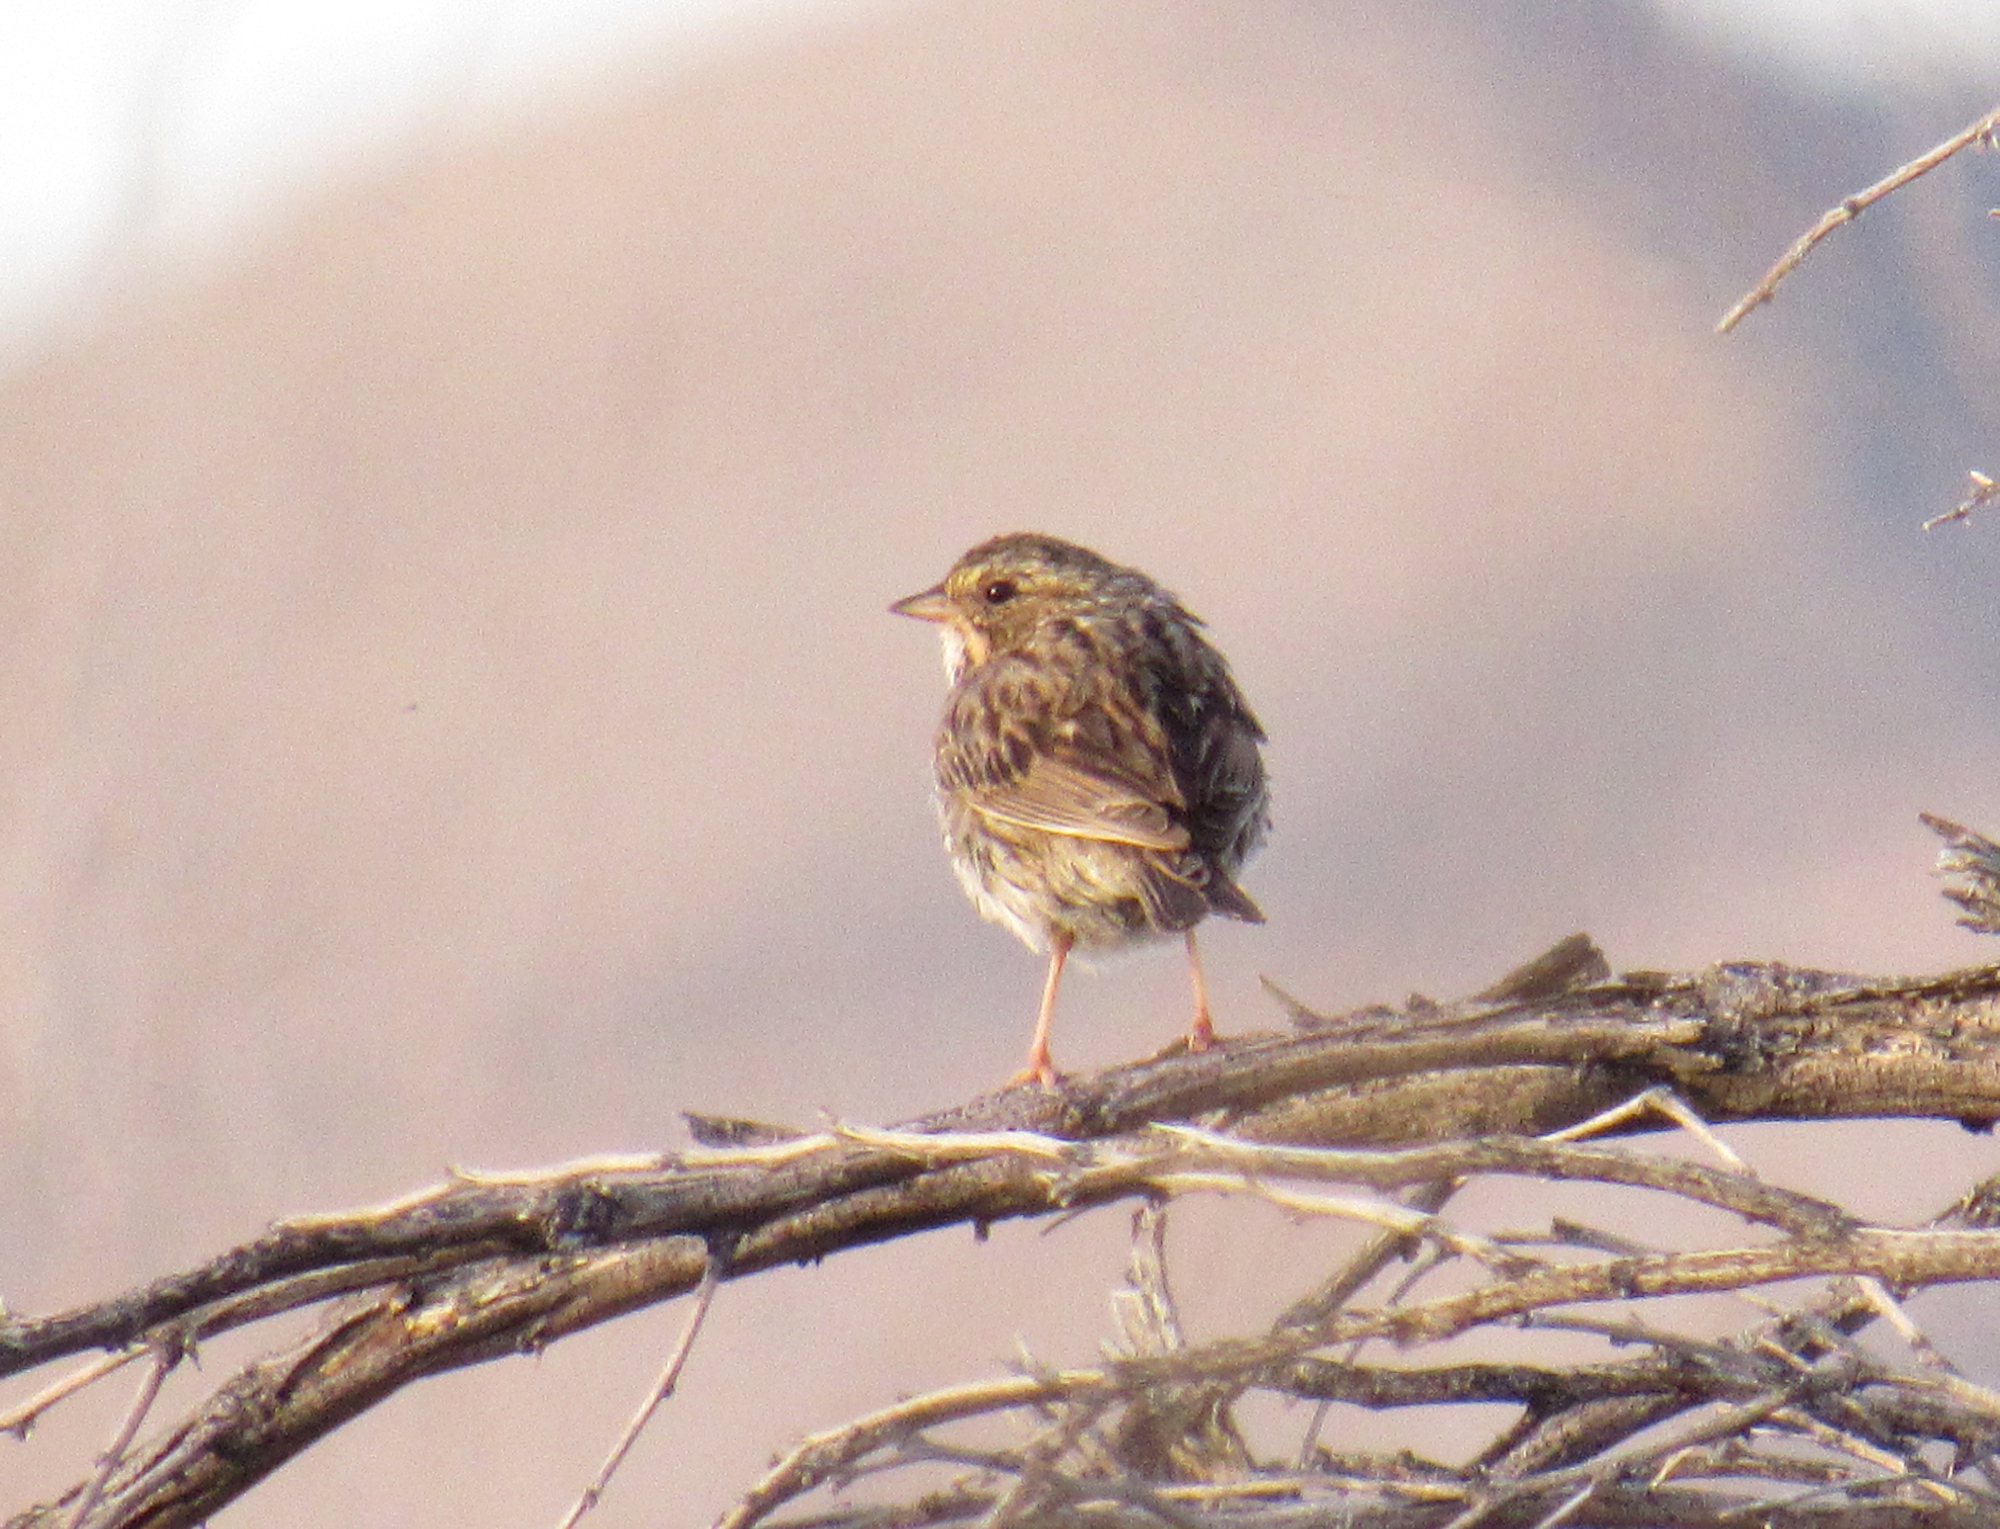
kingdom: Animalia
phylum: Chordata
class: Aves
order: Passeriformes
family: Passerellidae
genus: Passerculus
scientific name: Passerculus sandwichensis
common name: Savannah sparrow
